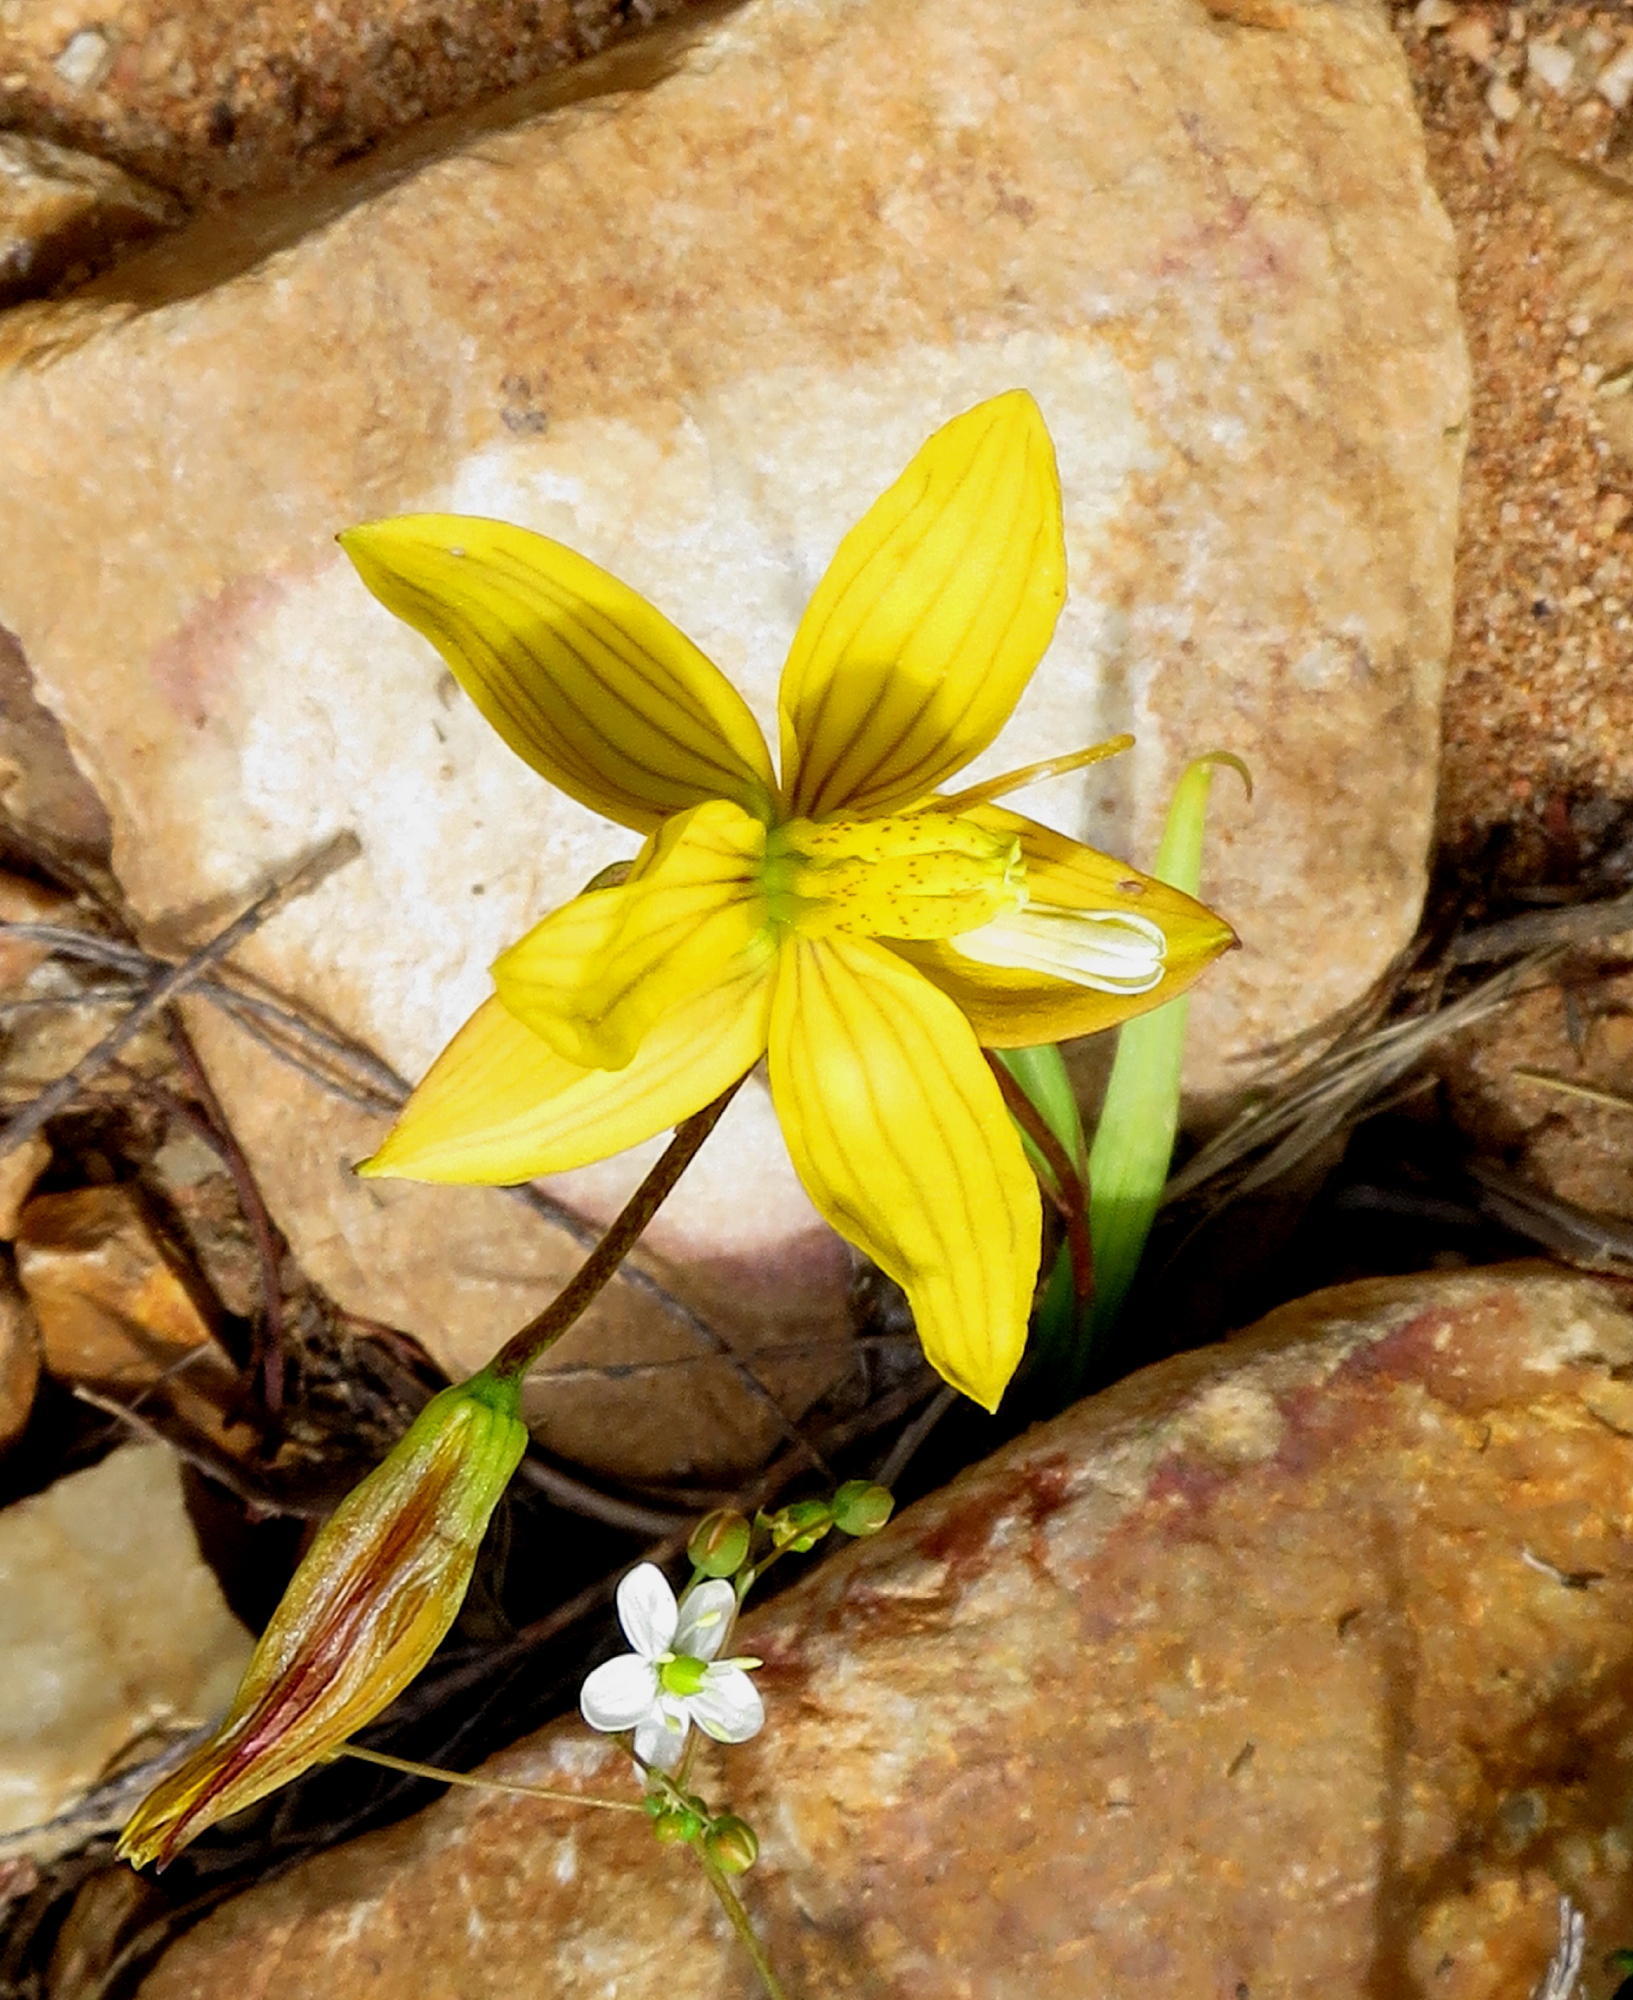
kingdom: Plantae
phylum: Tracheophyta
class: Liliopsida
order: Asparagales
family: Tecophilaeaceae
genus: Cyanella
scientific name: Cyanella lutea
